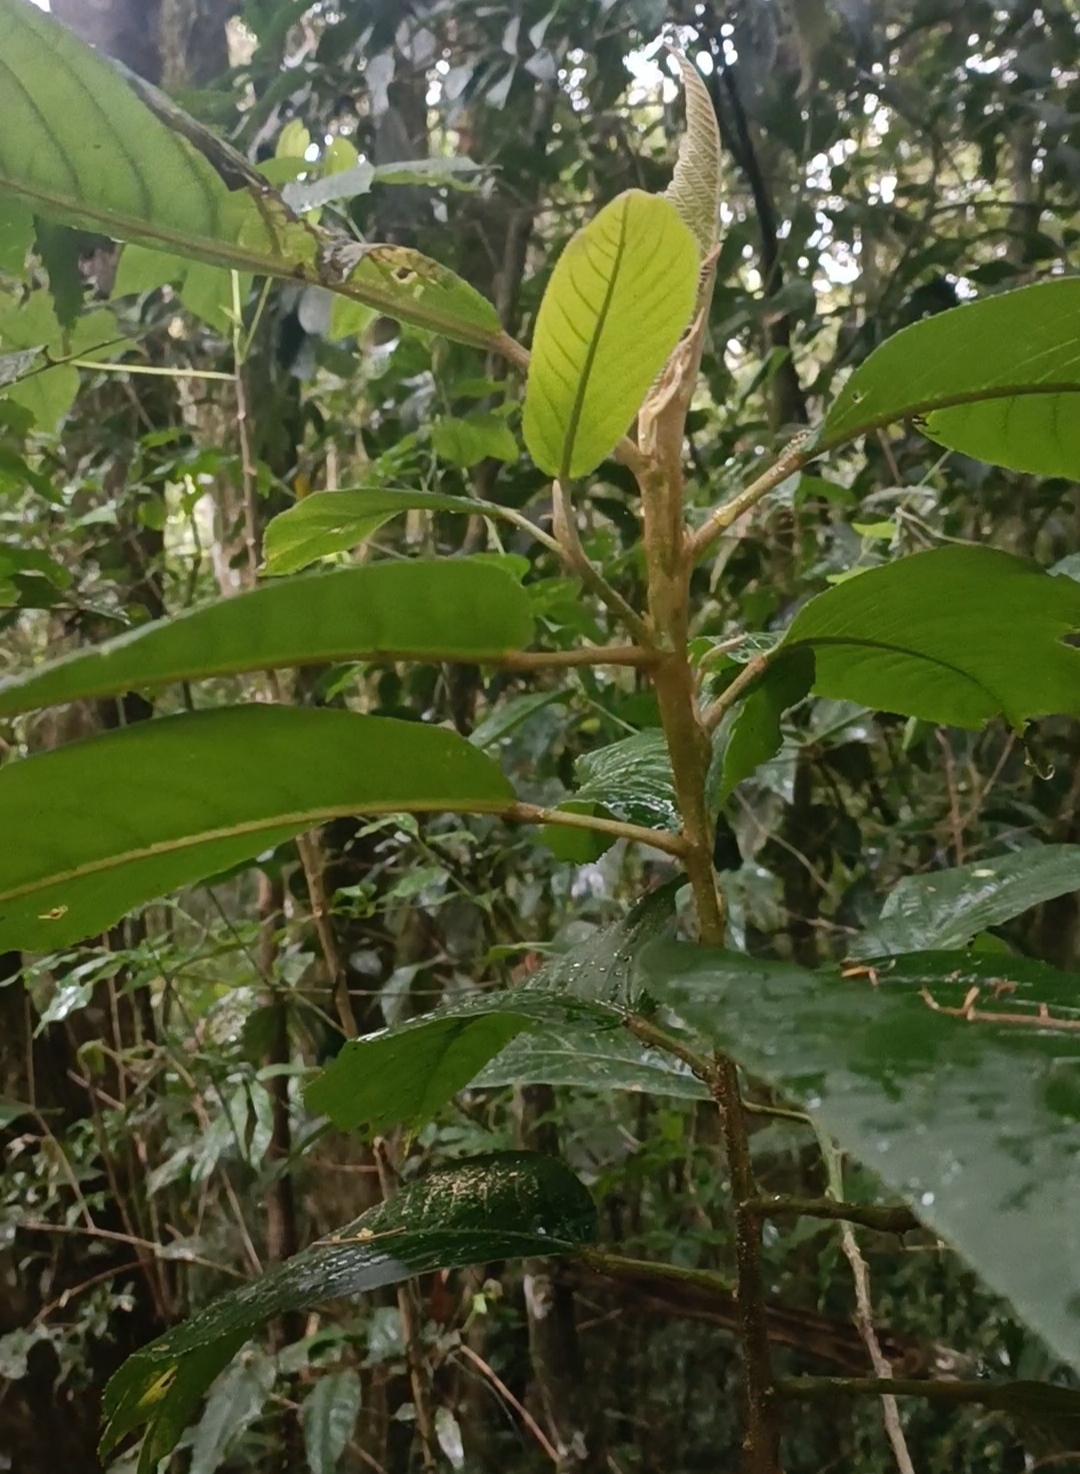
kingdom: Plantae
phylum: Tracheophyta
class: Magnoliopsida
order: Malpighiales
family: Euphorbiaceae
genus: Croton
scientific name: Croton organensis
